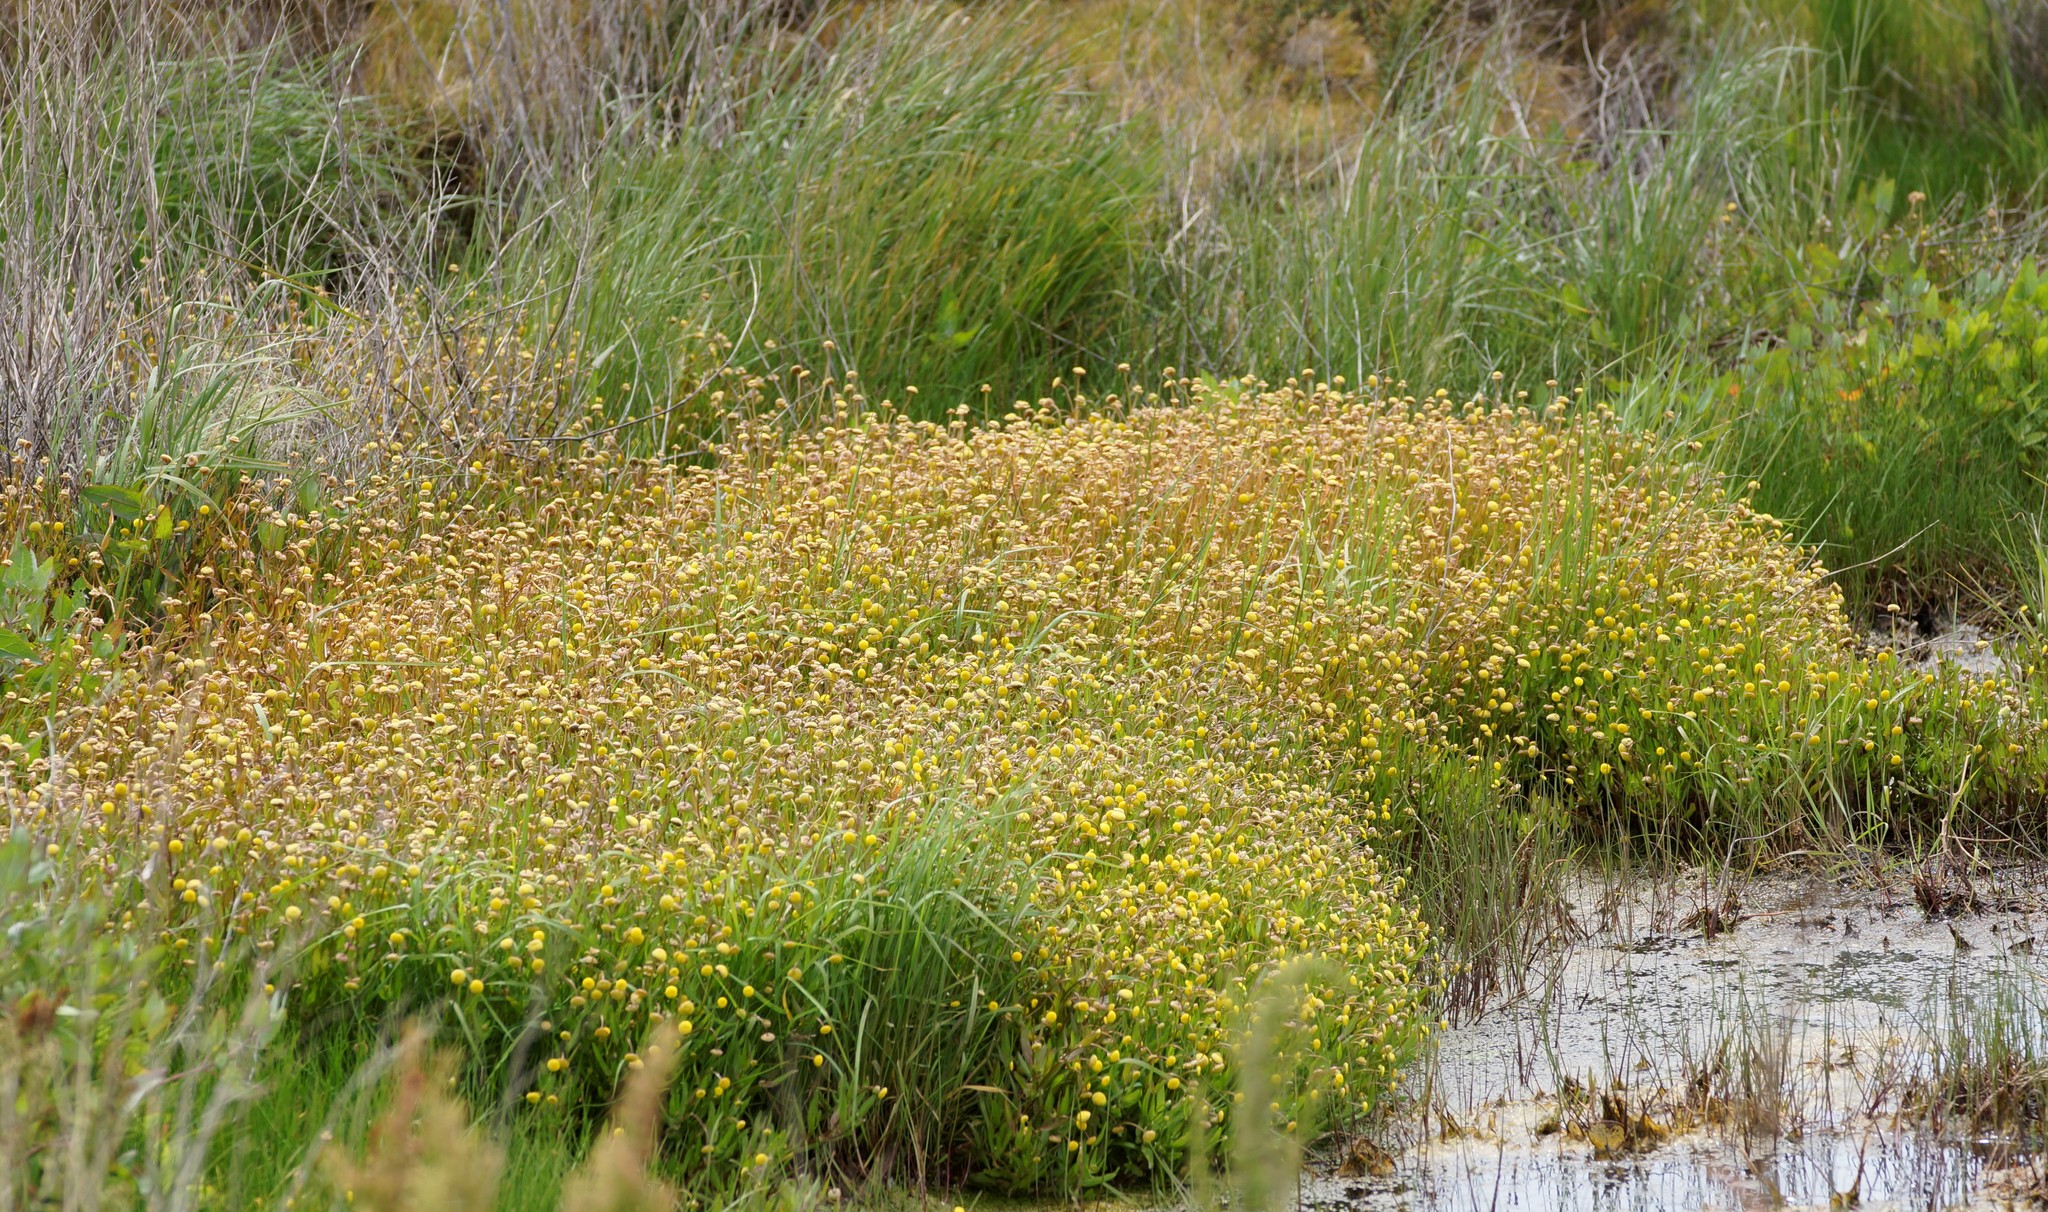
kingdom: Plantae
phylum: Tracheophyta
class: Magnoliopsida
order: Asterales
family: Asteraceae
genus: Cotula
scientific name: Cotula coronopifolia
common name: Buttonweed
